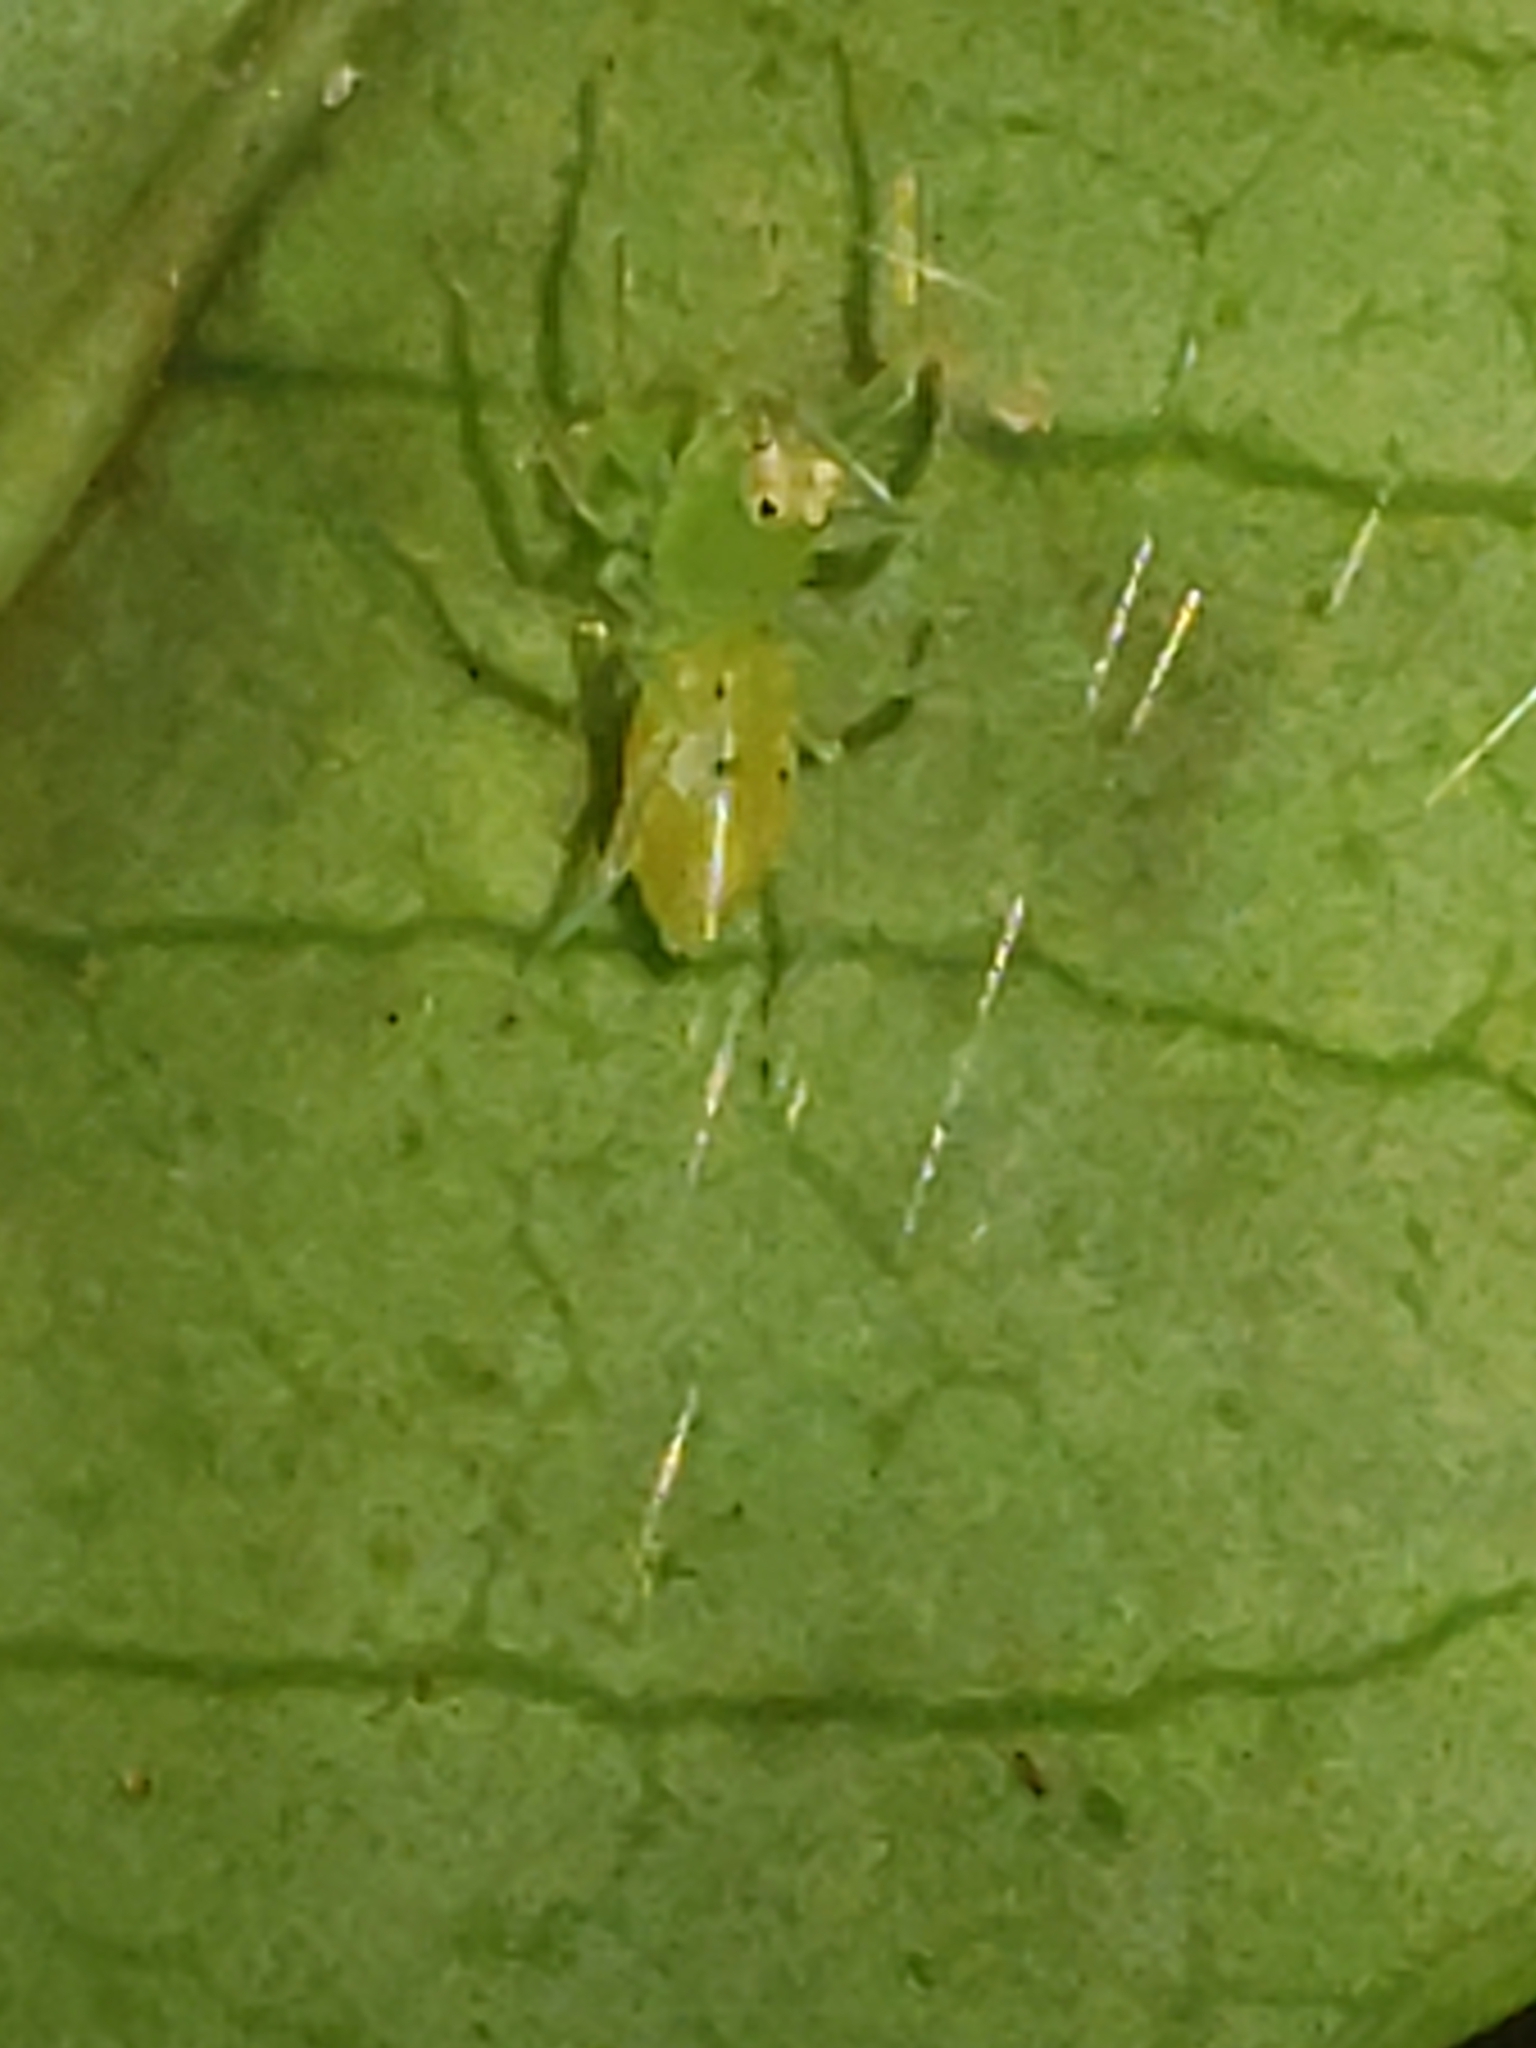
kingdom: Animalia
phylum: Arthropoda
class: Arachnida
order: Araneae
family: Salticidae
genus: Lyssomanes
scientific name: Lyssomanes viridis
